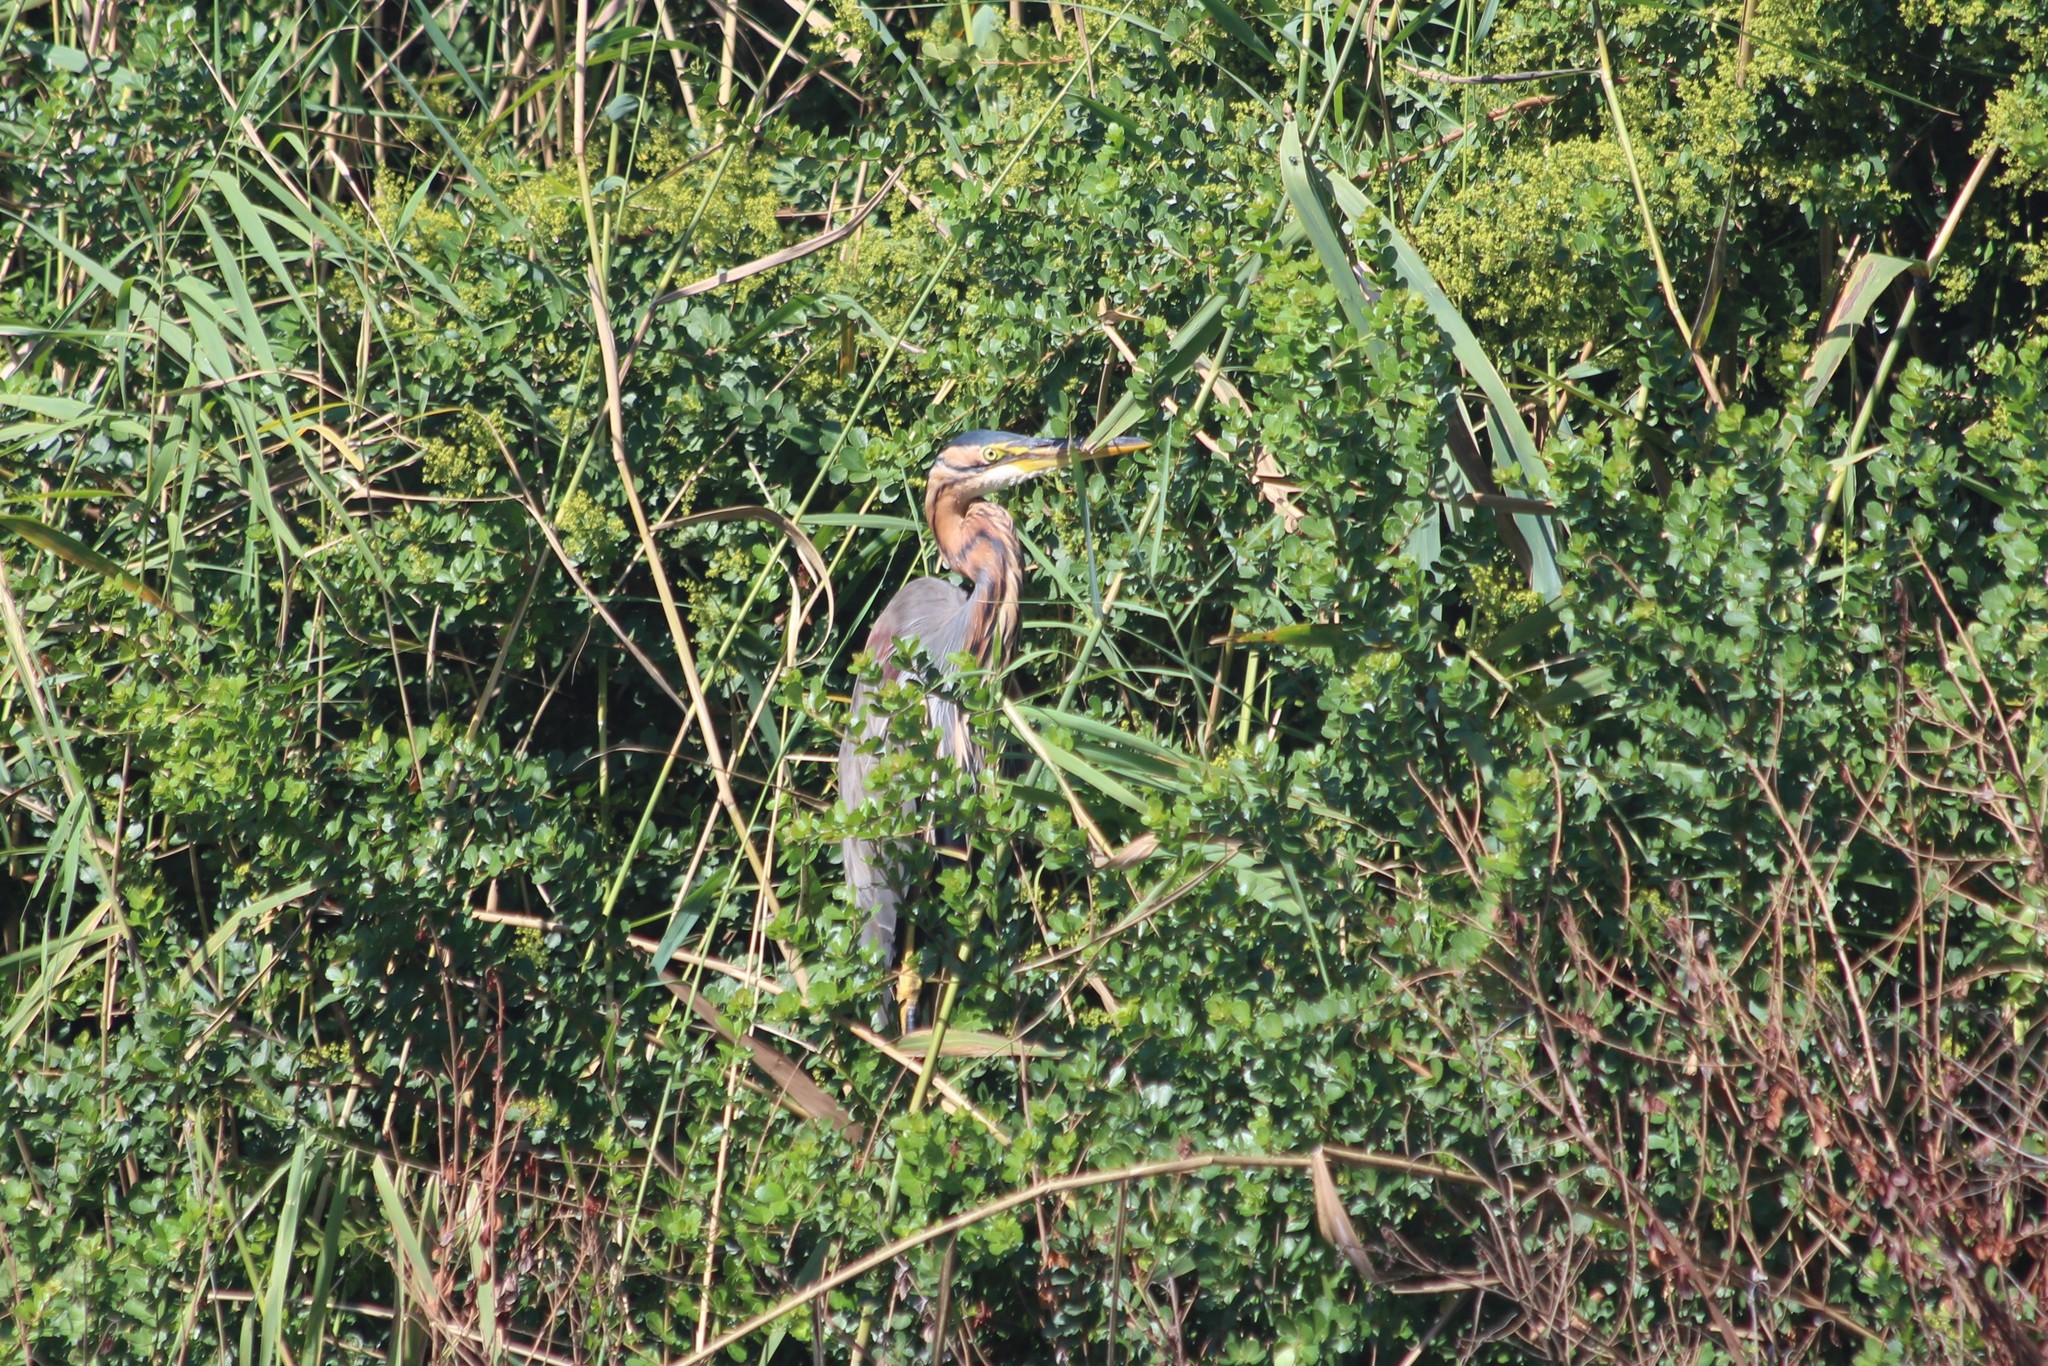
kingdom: Animalia
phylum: Chordata
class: Aves
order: Pelecaniformes
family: Ardeidae
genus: Ardea
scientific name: Ardea purpurea
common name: Purple heron
